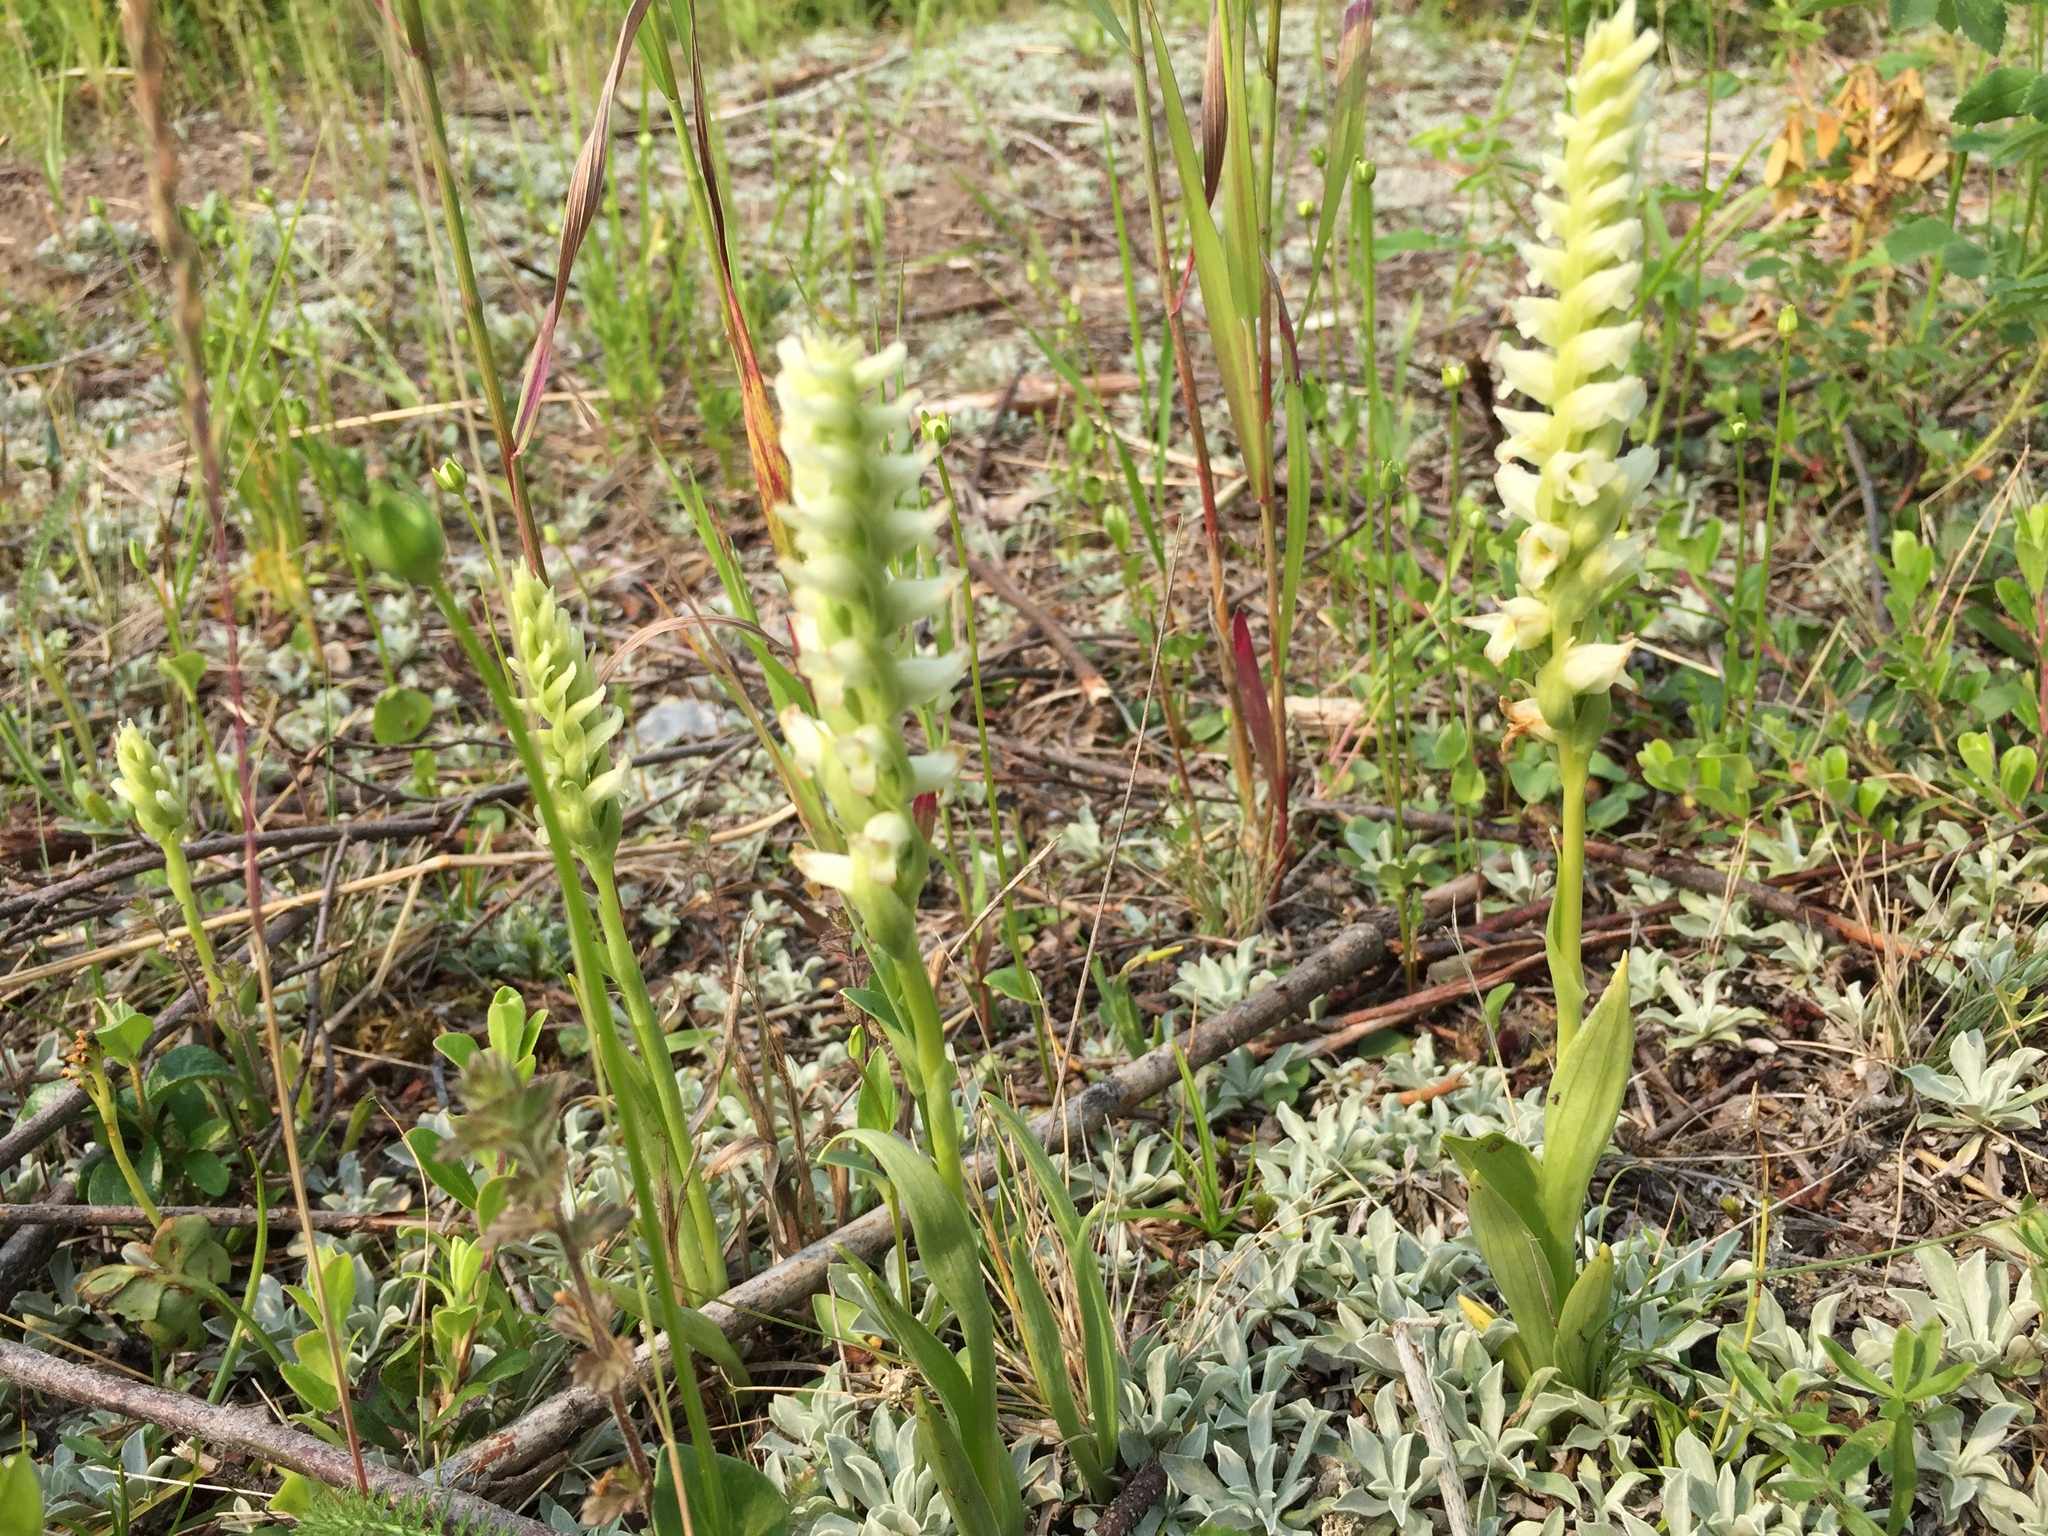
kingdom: Plantae
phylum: Tracheophyta
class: Liliopsida
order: Asparagales
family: Orchidaceae
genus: Spiranthes
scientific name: Spiranthes romanzoffiana
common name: Irish lady's-tresses
